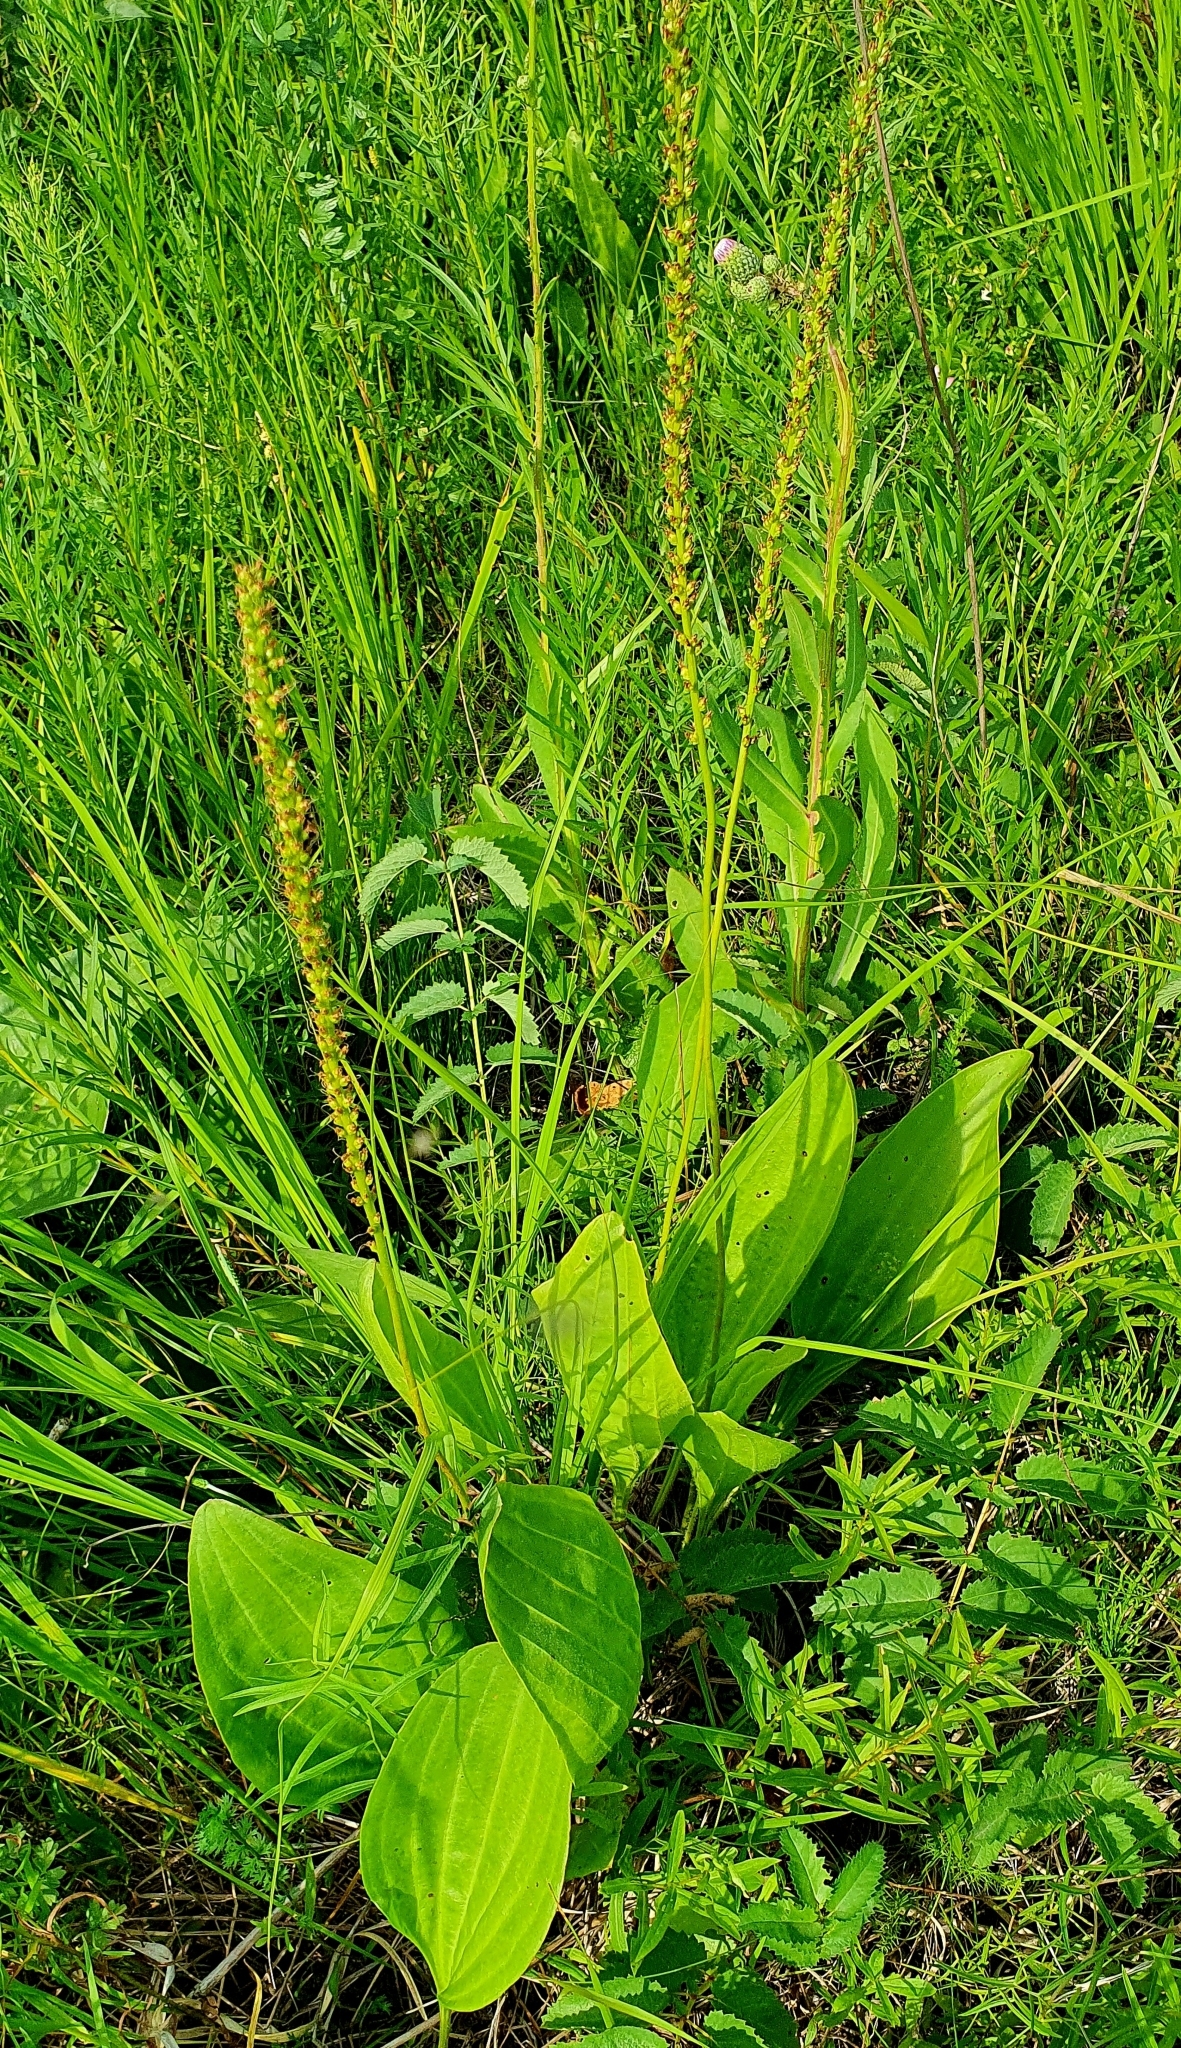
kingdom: Plantae
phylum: Tracheophyta
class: Magnoliopsida
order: Lamiales
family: Plantaginaceae
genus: Plantago
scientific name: Plantago cornuti
